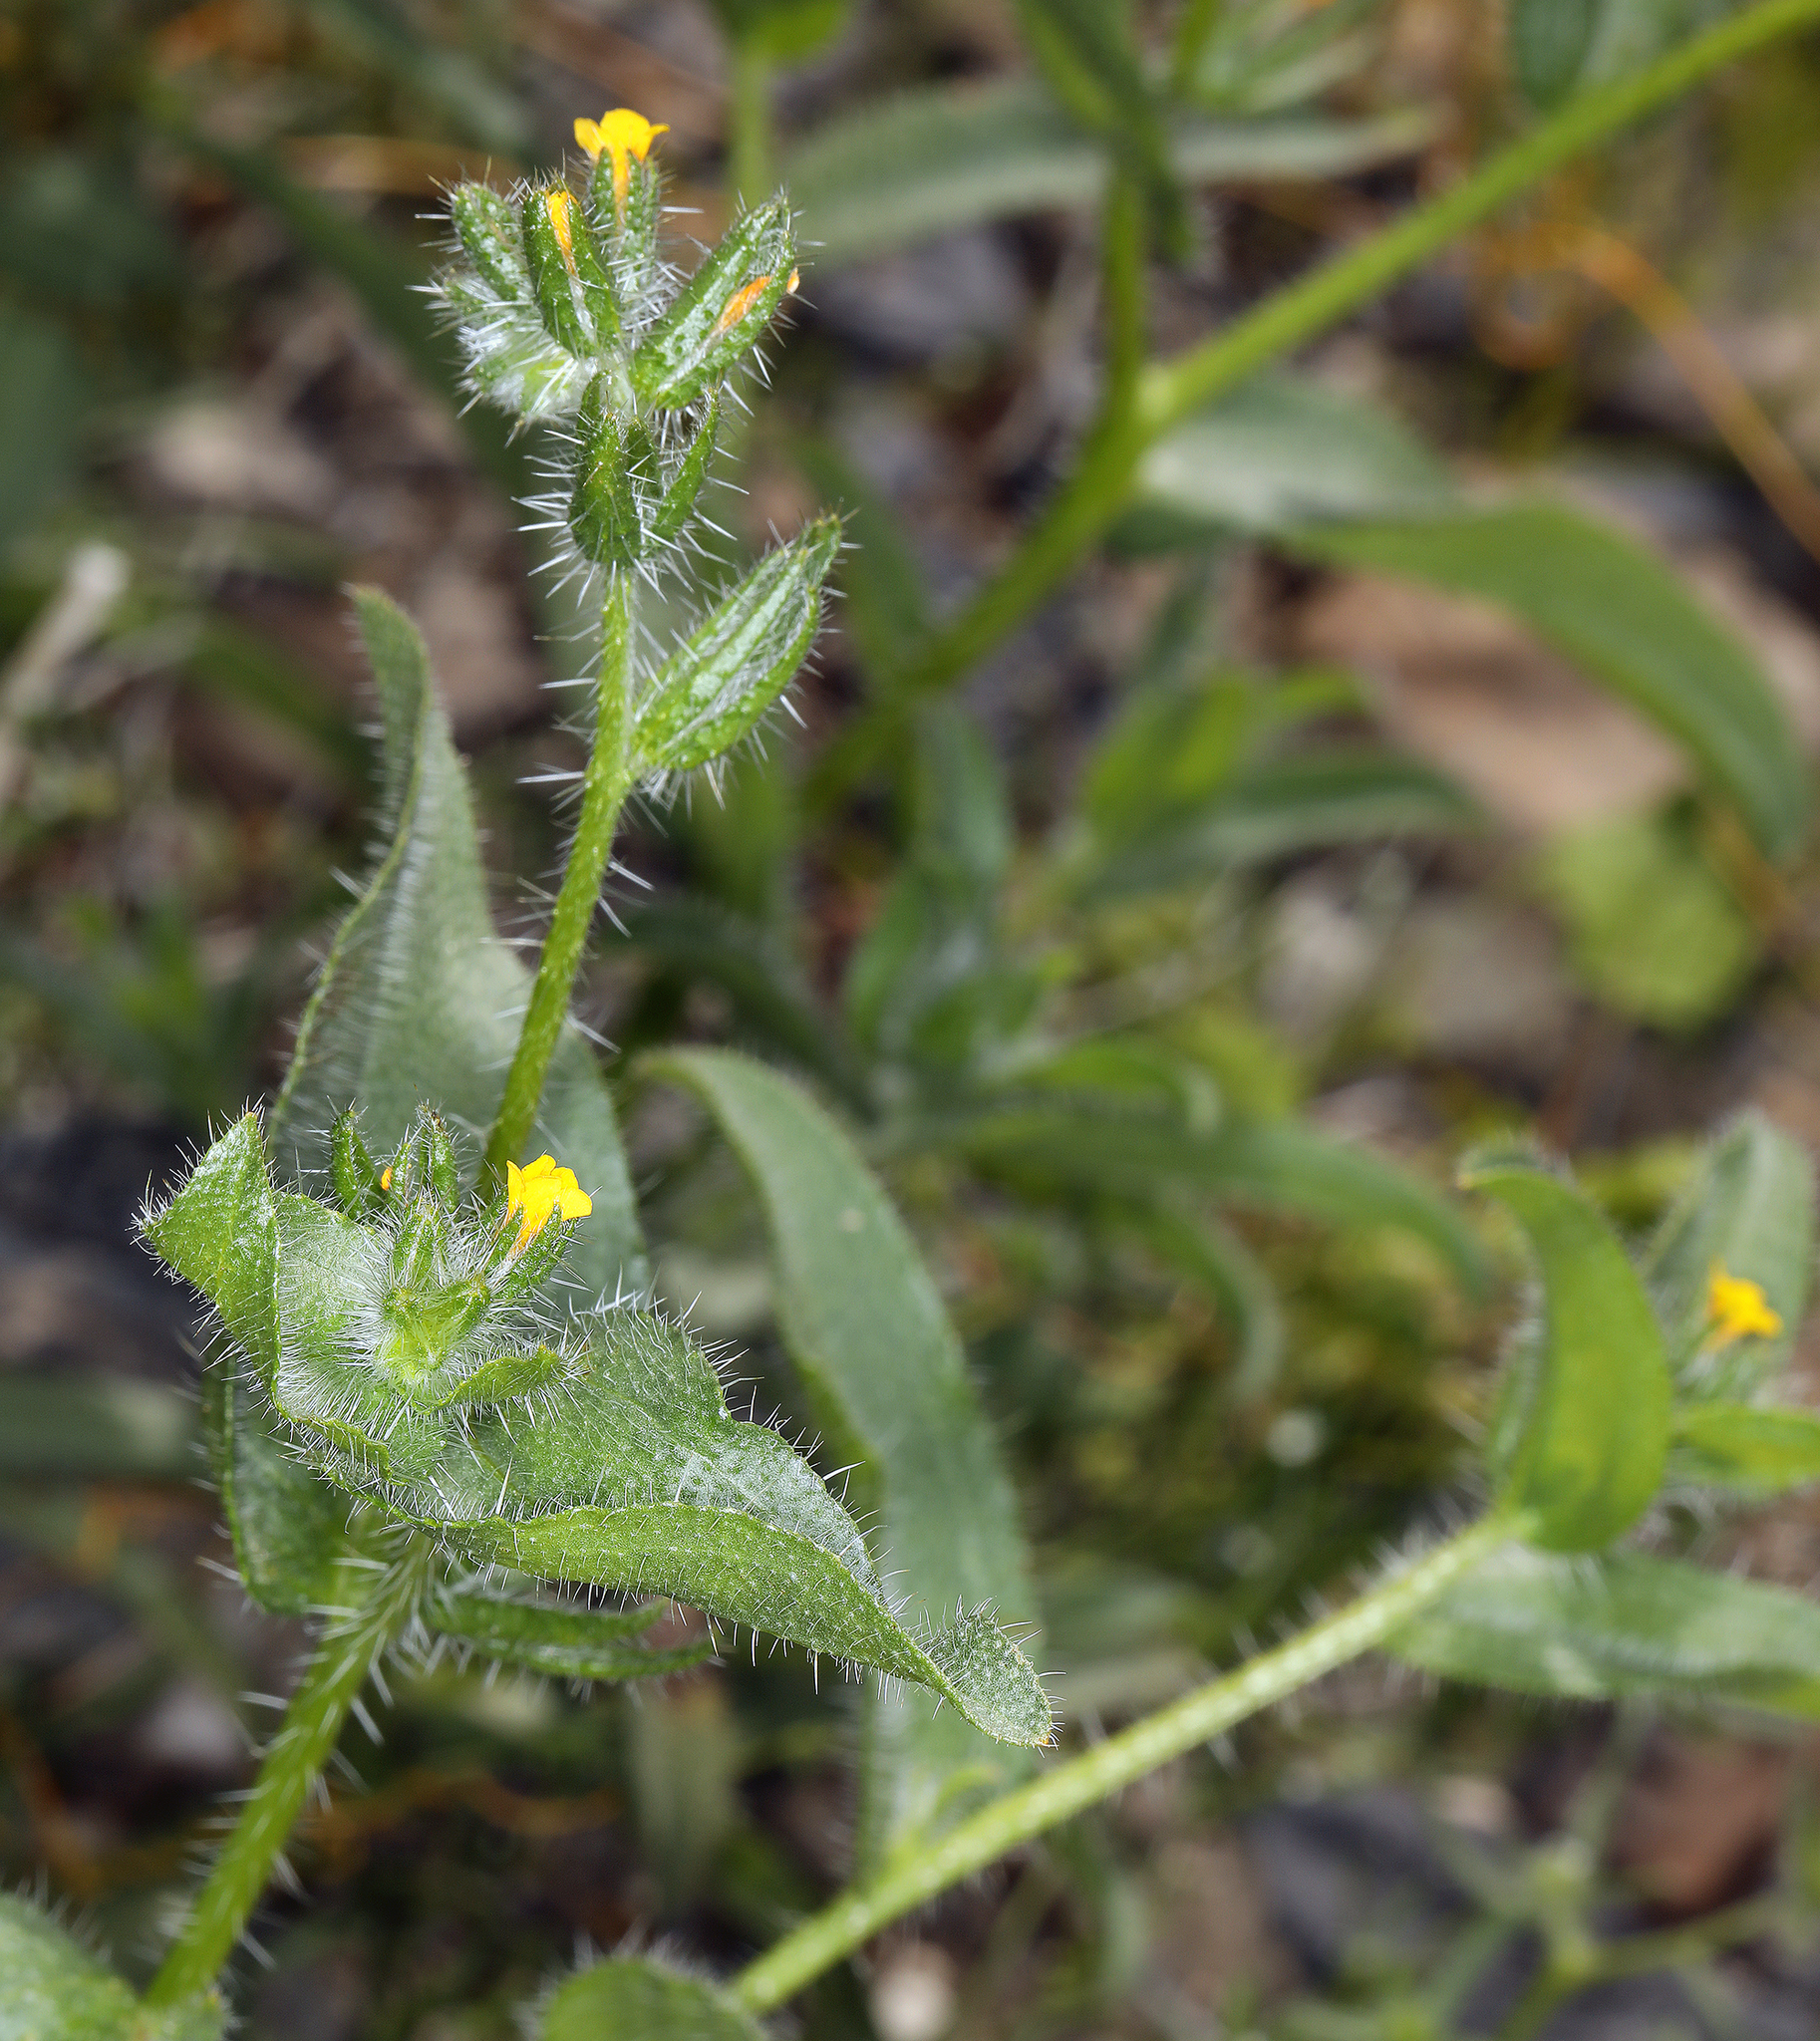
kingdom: Plantae
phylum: Tracheophyta
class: Magnoliopsida
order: Boraginales
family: Boraginaceae
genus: Amsinckia
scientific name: Amsinckia tessellata
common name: Tessellate fiddleneck
